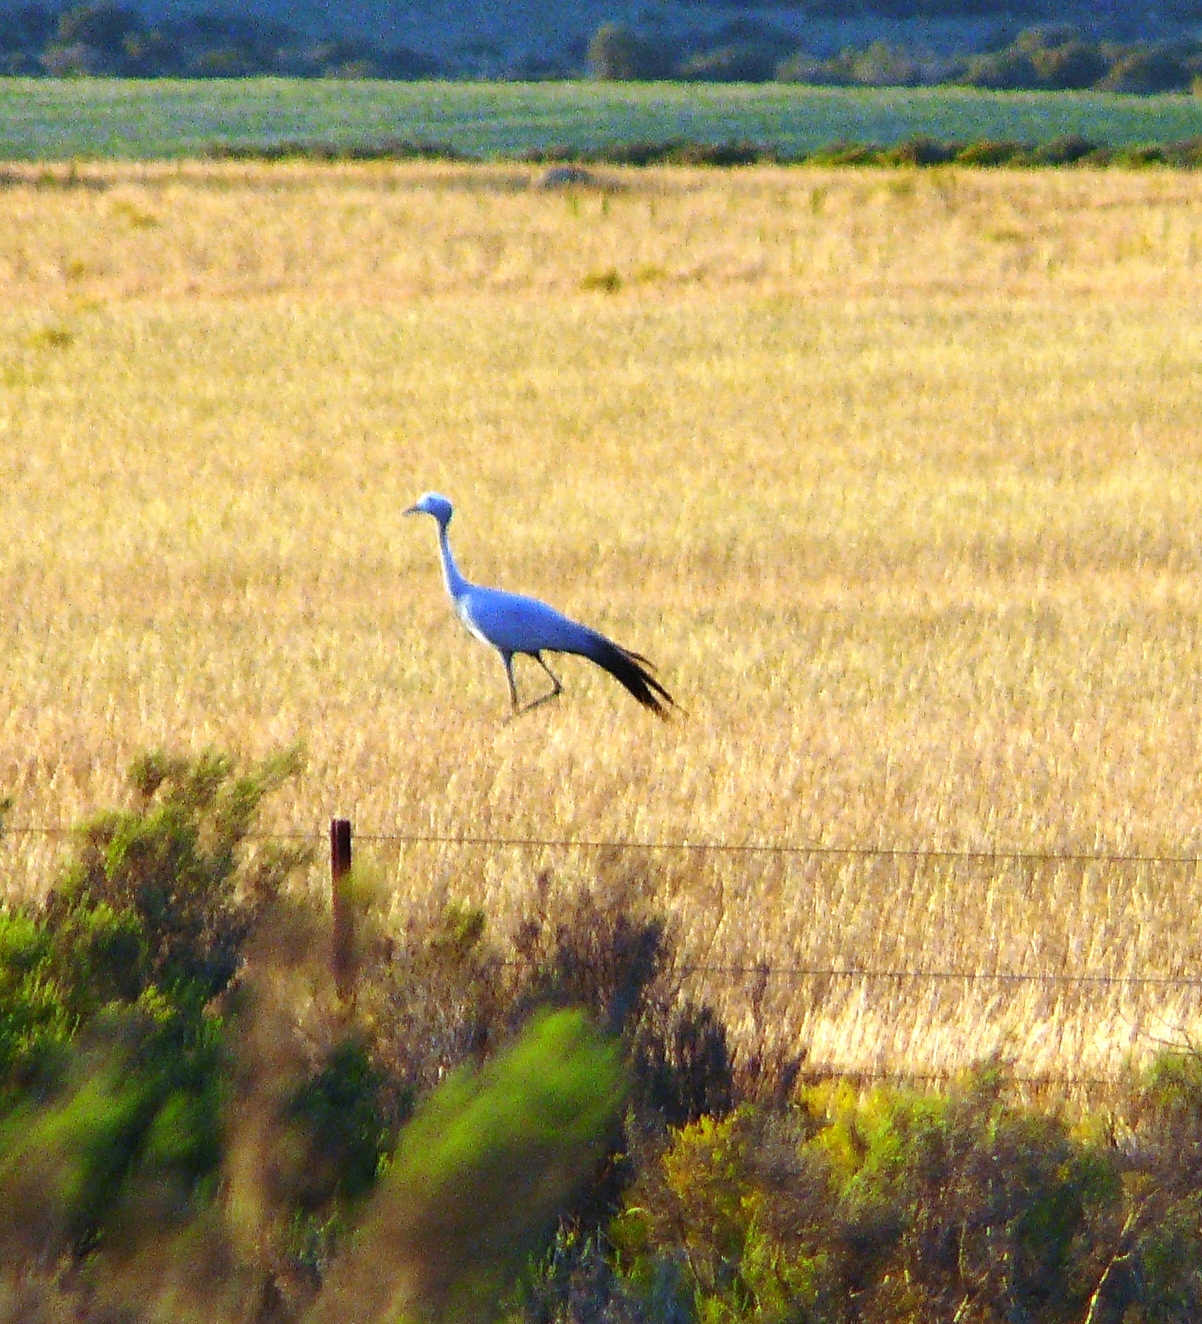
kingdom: Animalia
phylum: Chordata
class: Aves
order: Gruiformes
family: Gruidae
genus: Anthropoides
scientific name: Anthropoides paradiseus
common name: Blue crane
